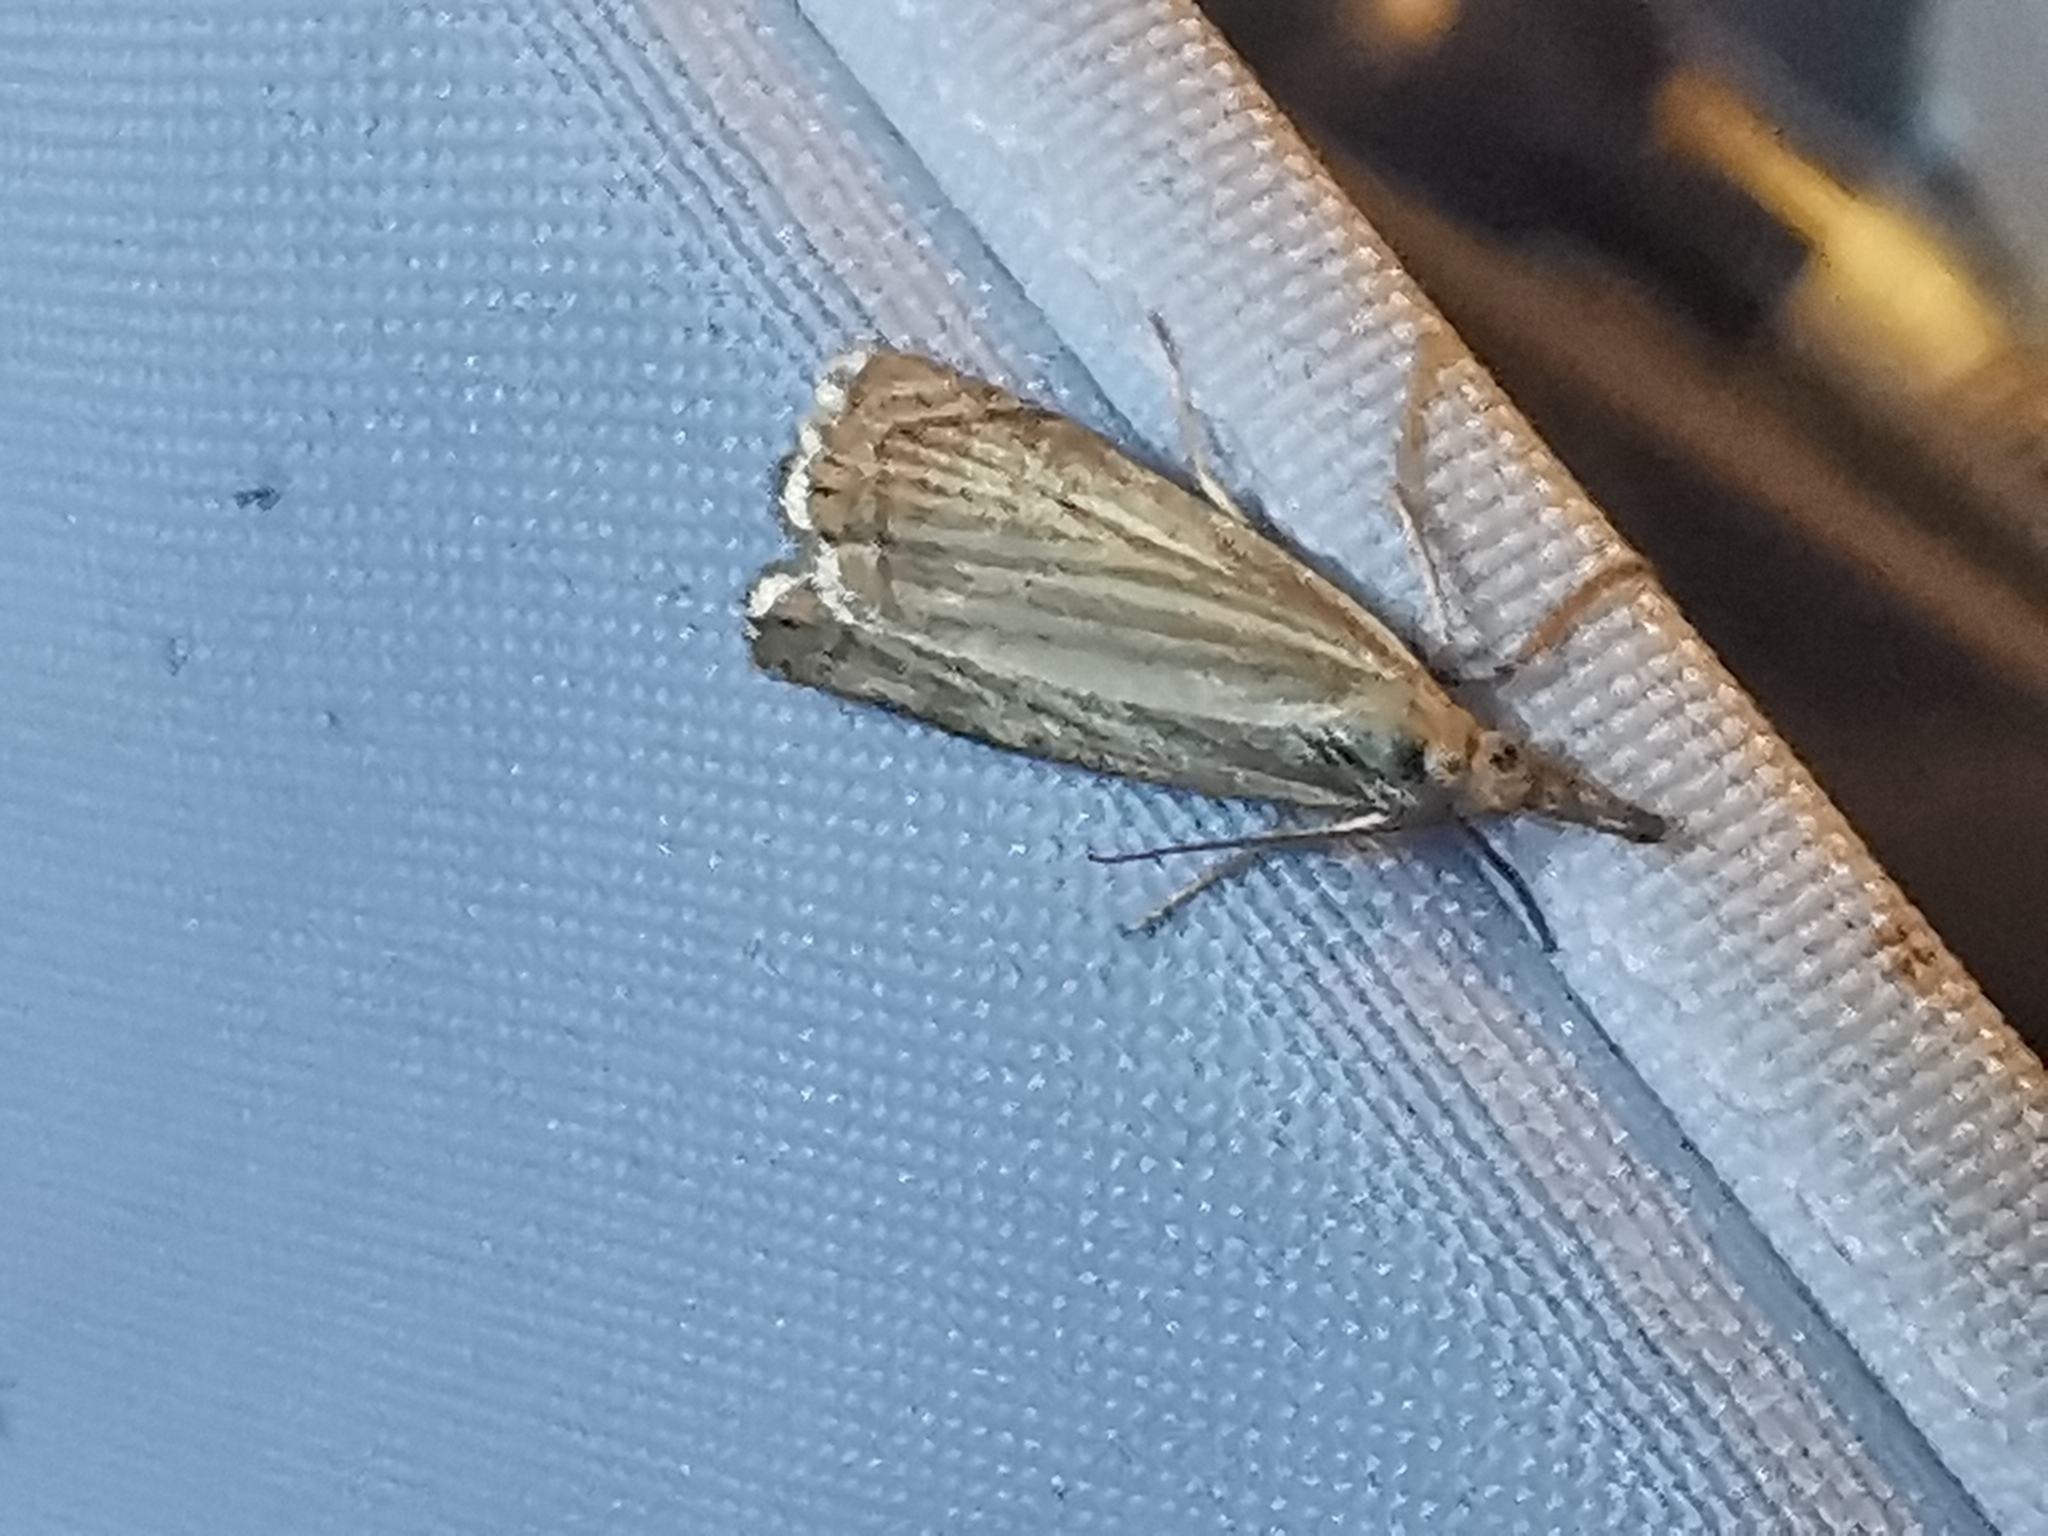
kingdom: Animalia
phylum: Arthropoda
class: Insecta
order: Lepidoptera
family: Crambidae
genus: Chrysoteuchia
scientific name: Chrysoteuchia culmella
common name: Garden grass-veneer
